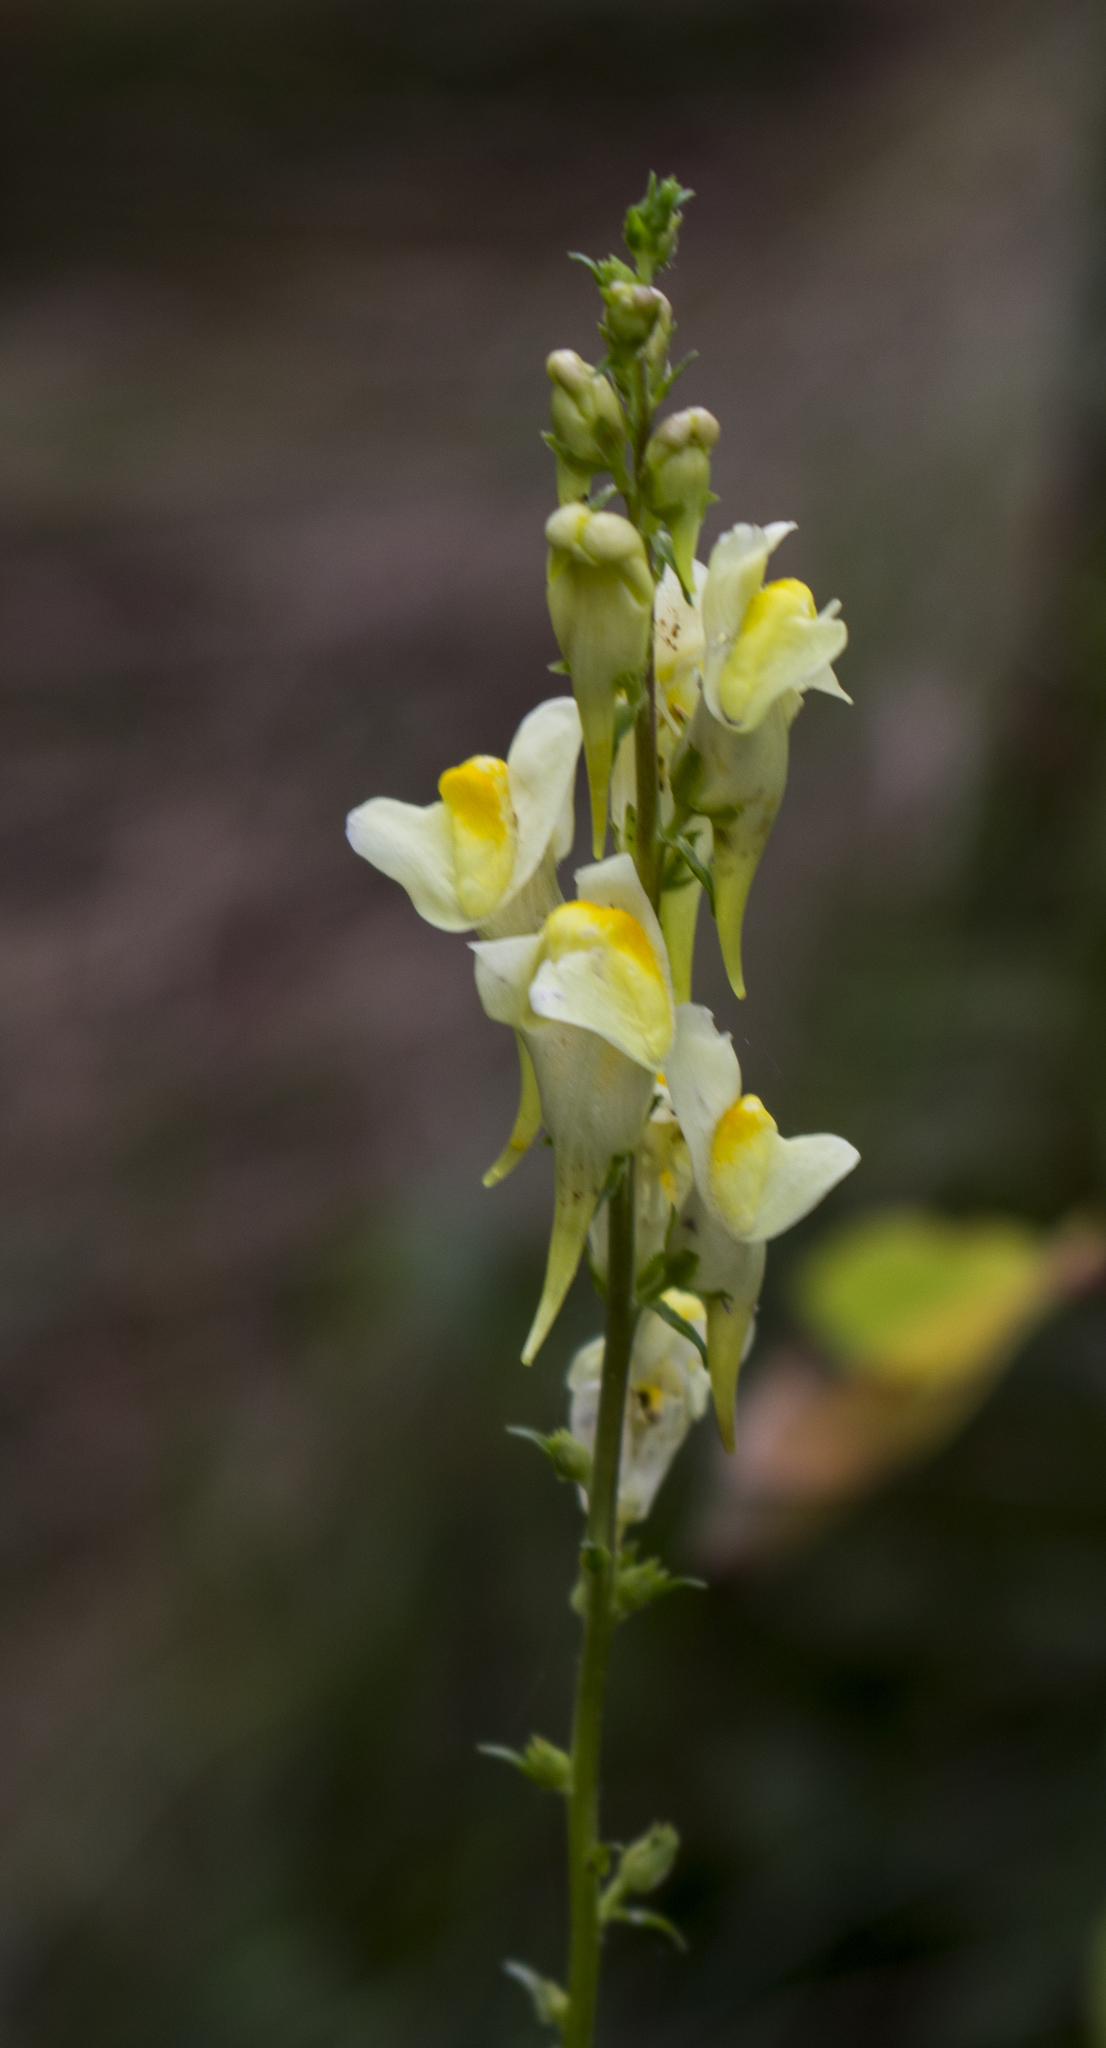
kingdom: Plantae
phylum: Tracheophyta
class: Magnoliopsida
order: Lamiales
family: Plantaginaceae
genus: Linaria
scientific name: Linaria vulgaris
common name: Butter and eggs
